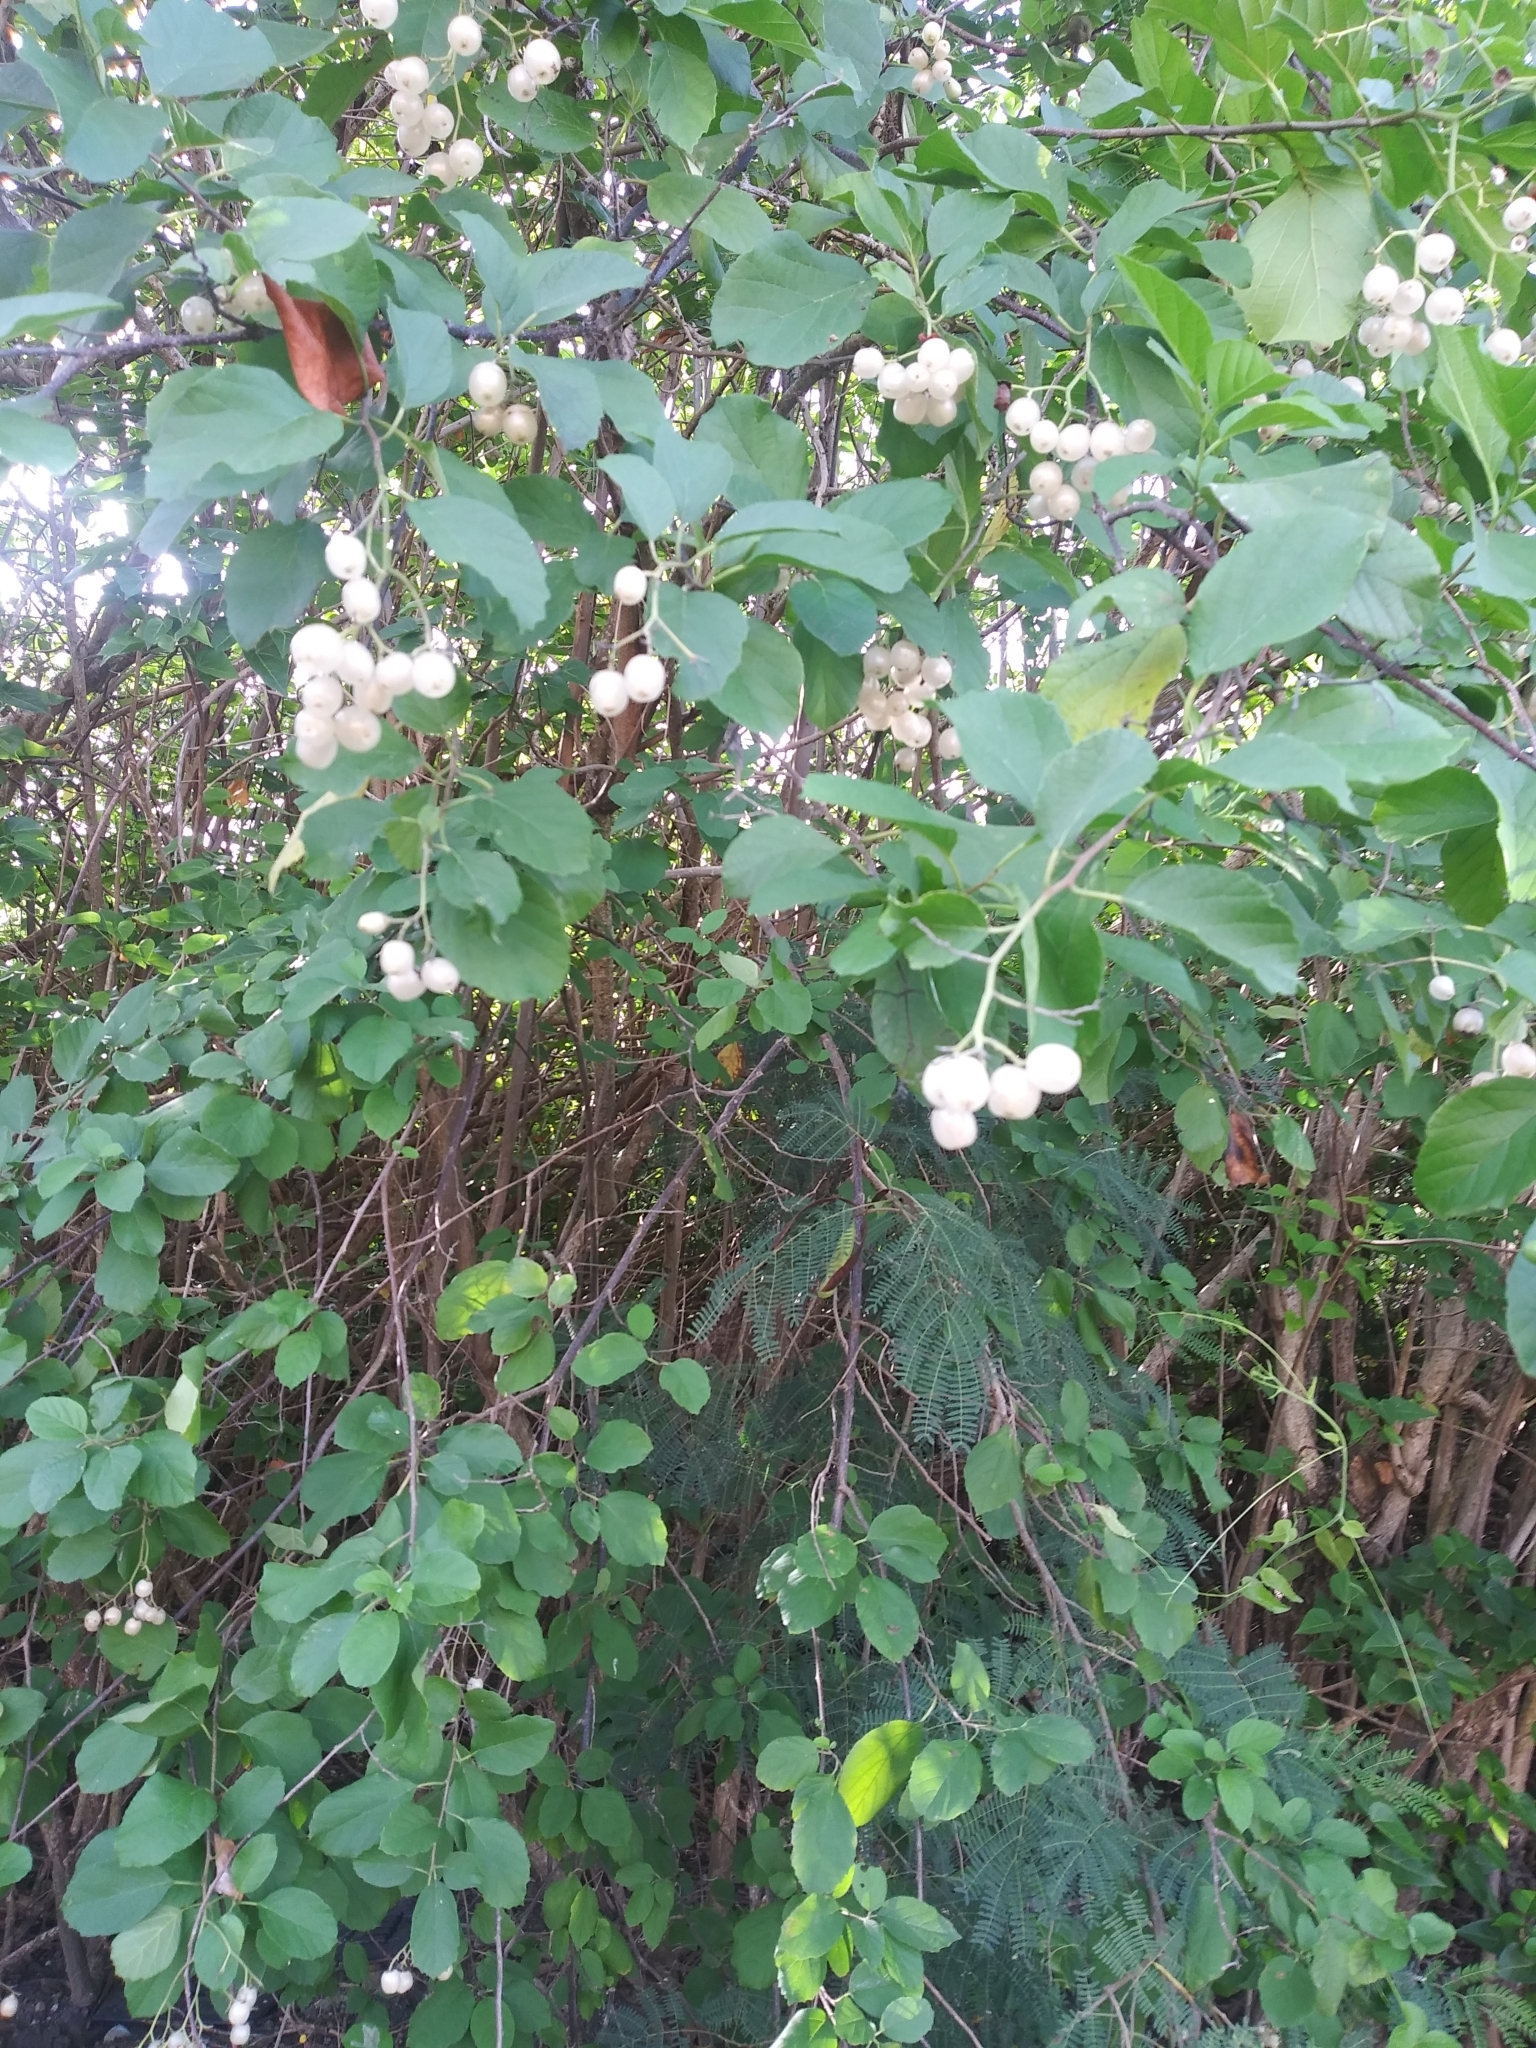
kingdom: Plantae
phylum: Tracheophyta
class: Magnoliopsida
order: Boraginales
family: Cordiaceae
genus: Cordia
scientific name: Cordia dentata
